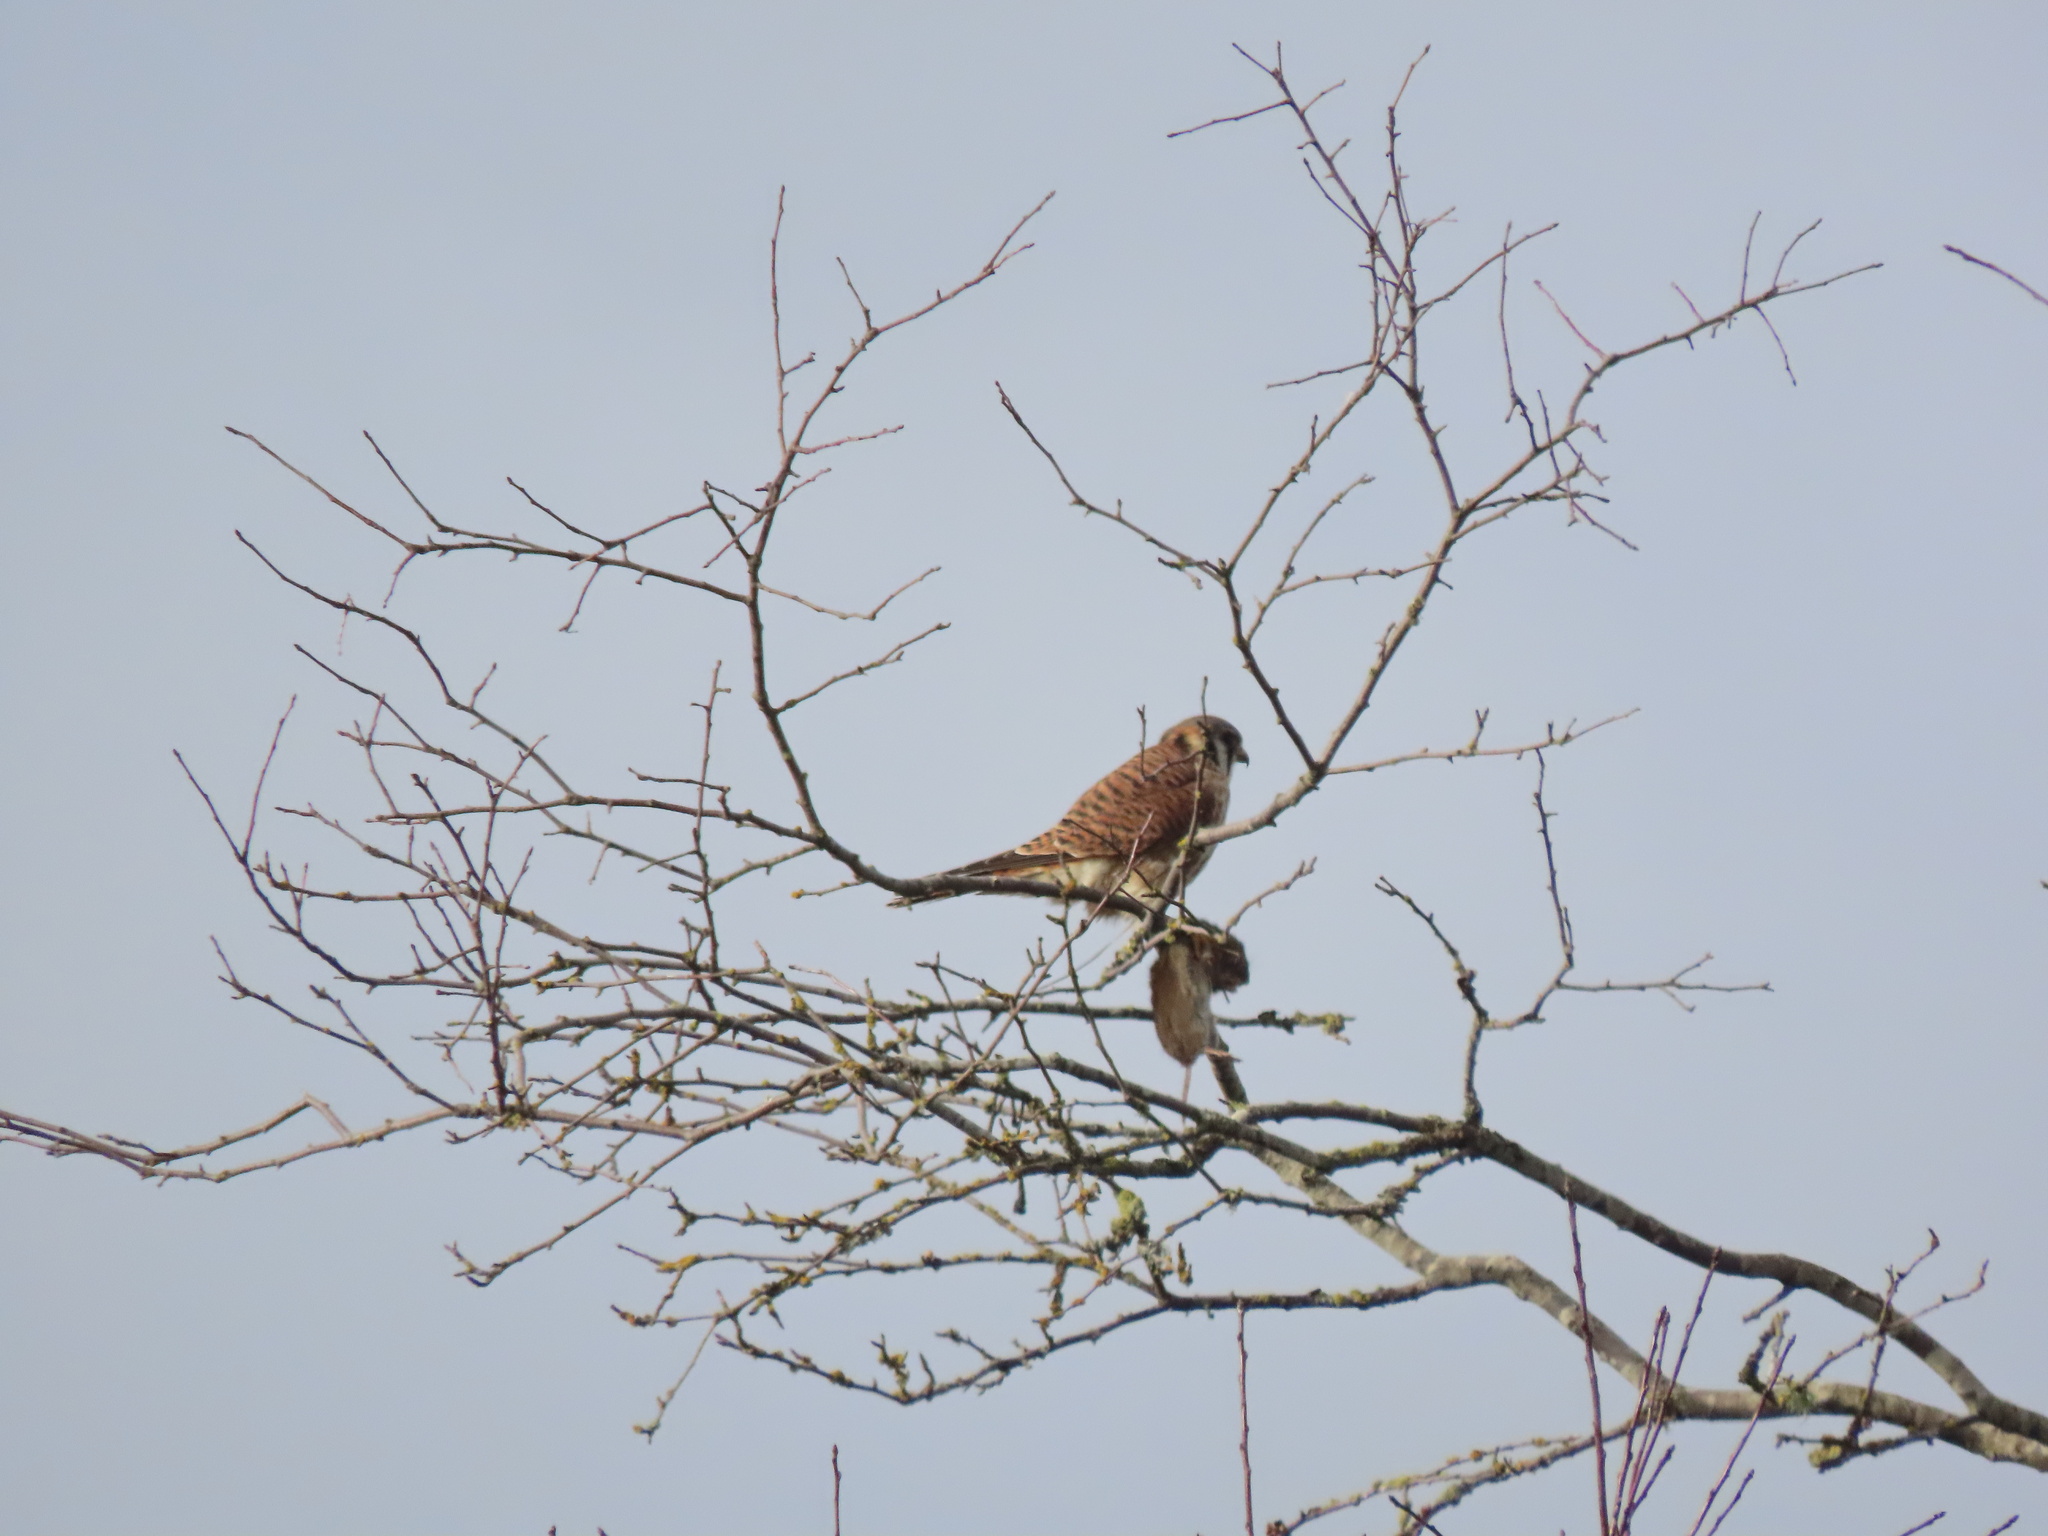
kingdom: Animalia
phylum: Chordata
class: Aves
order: Falconiformes
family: Falconidae
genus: Falco
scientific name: Falco sparverius
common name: American kestrel
